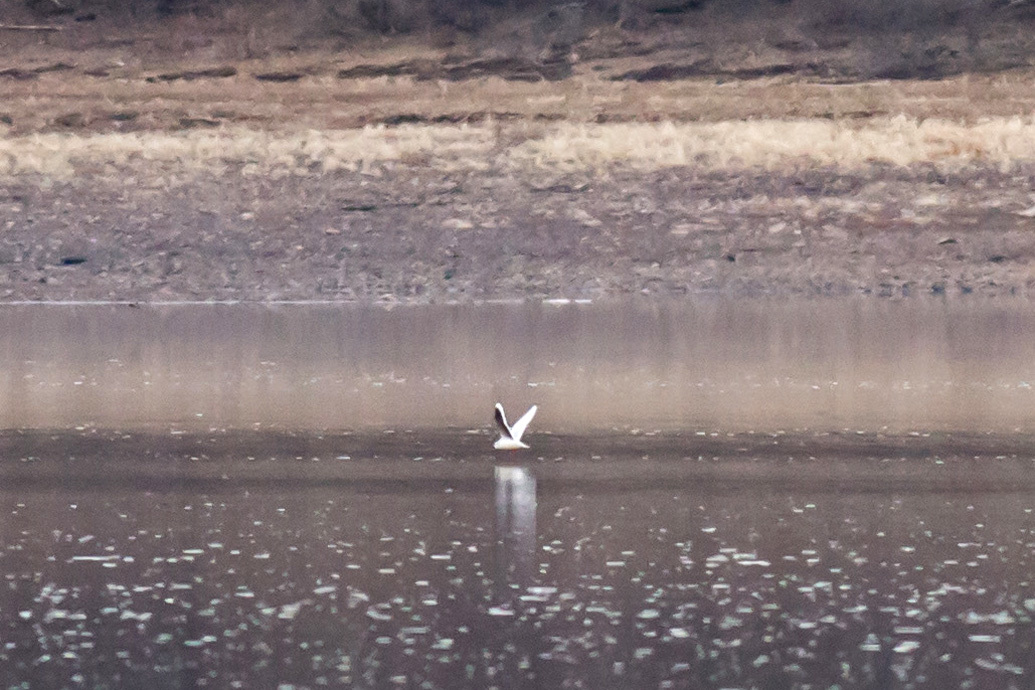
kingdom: Animalia
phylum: Chordata
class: Aves
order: Charadriiformes
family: Laridae
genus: Hydrocoloeus
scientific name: Hydrocoloeus minutus
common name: Little gull
